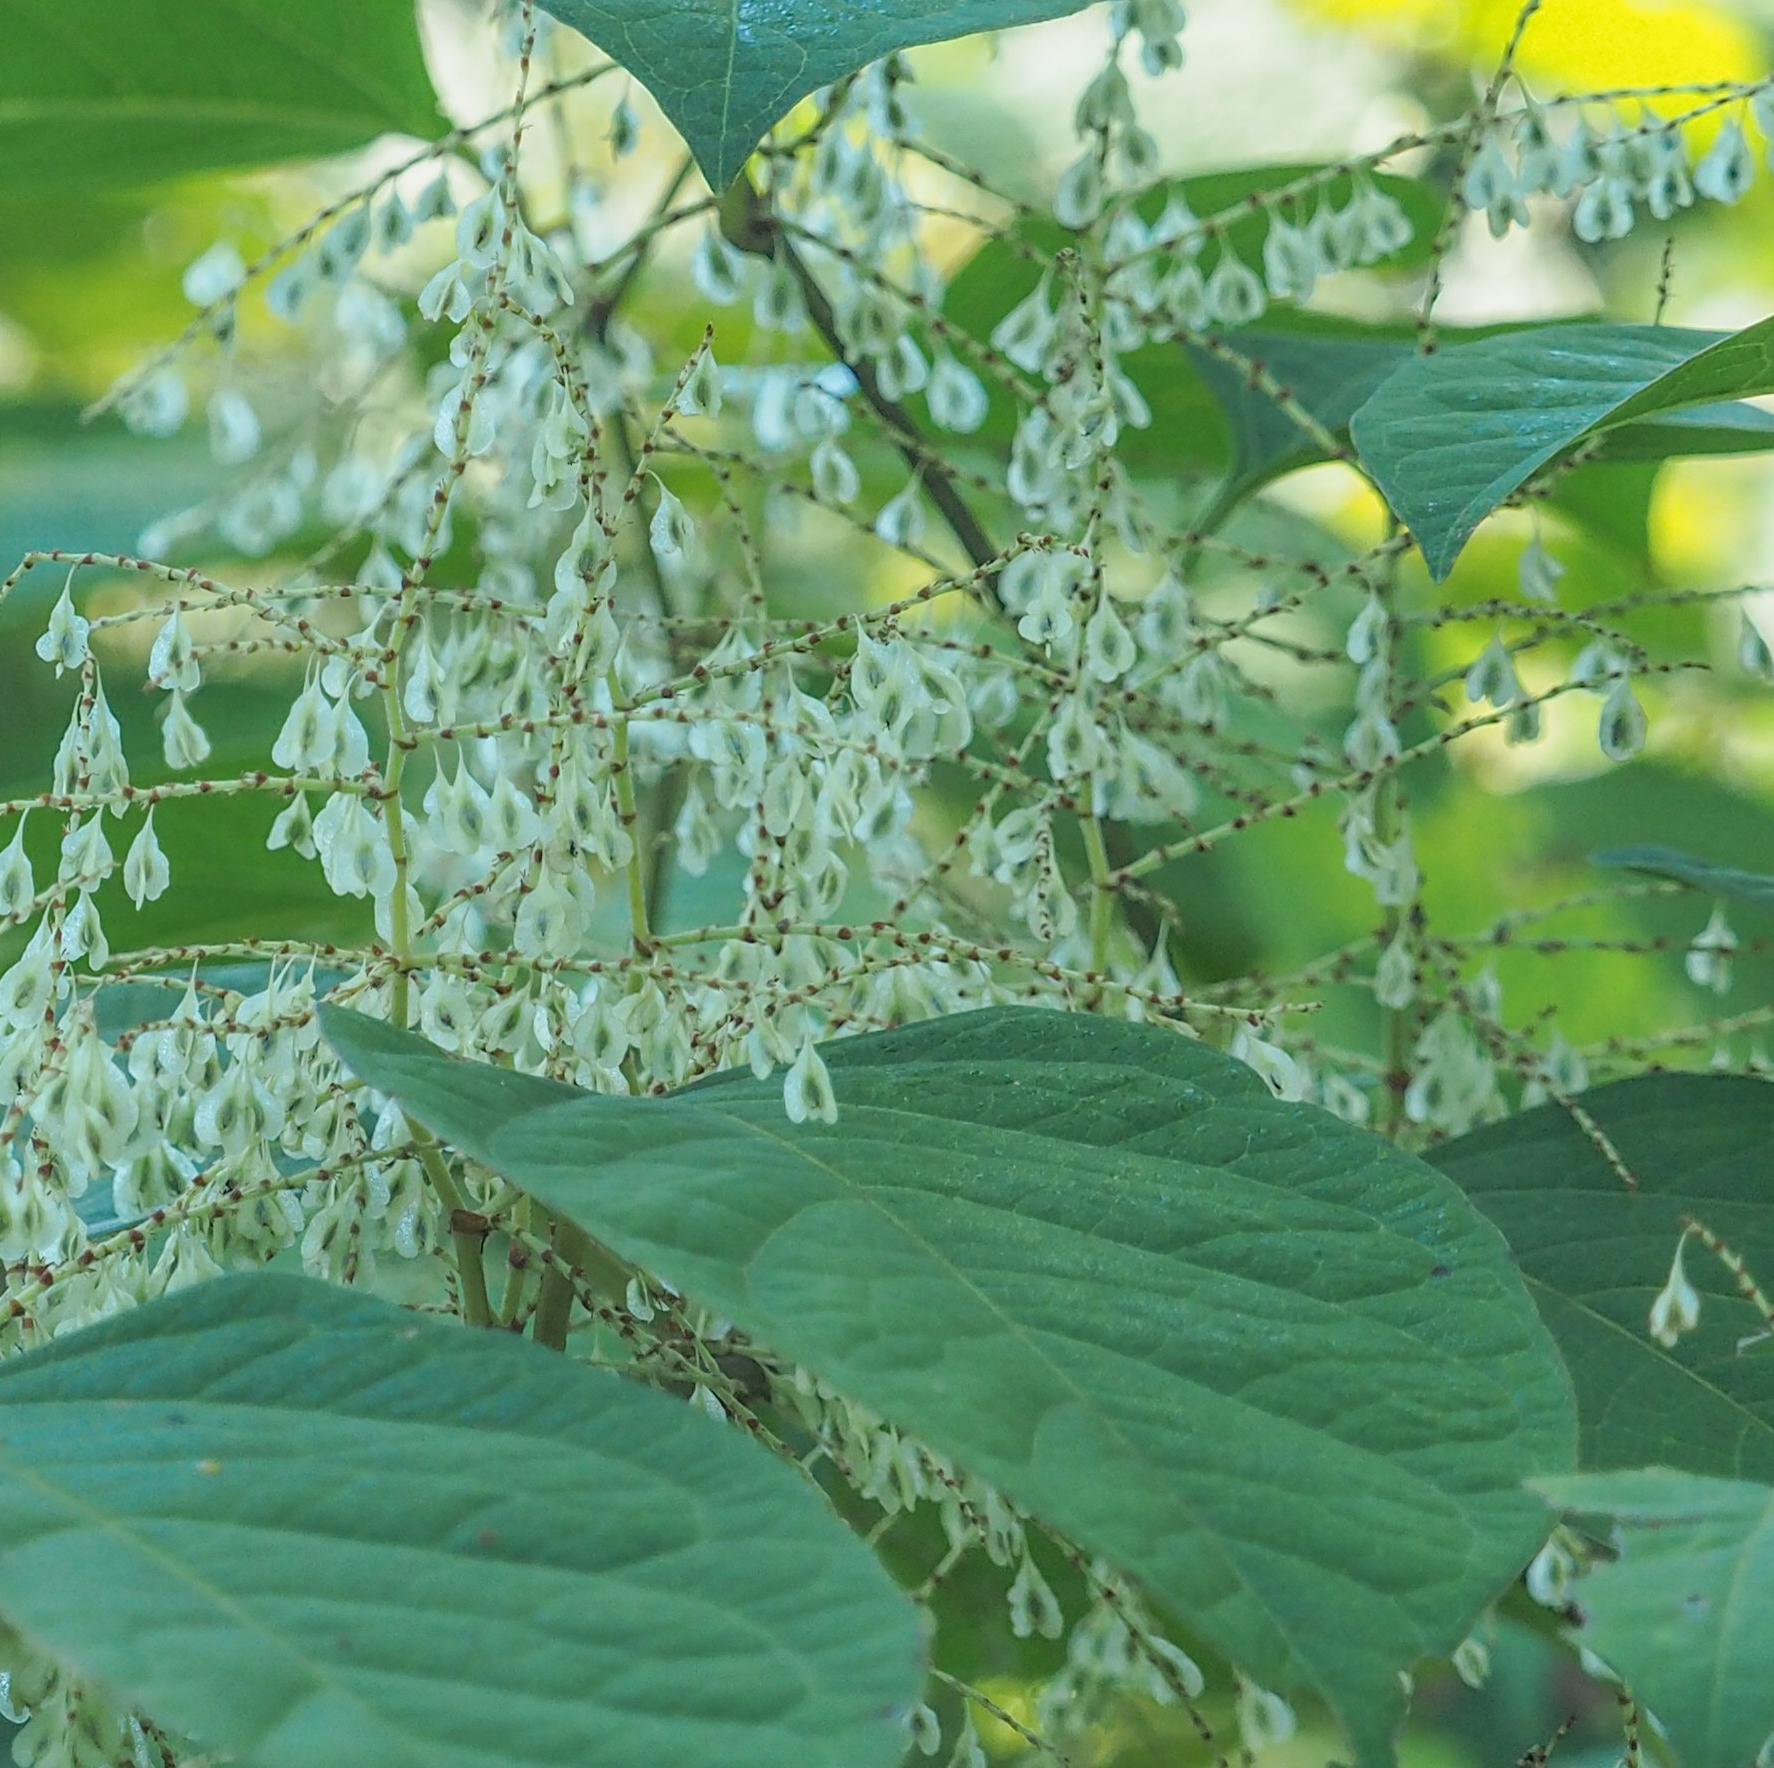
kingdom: Plantae
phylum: Tracheophyta
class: Magnoliopsida
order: Caryophyllales
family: Polygonaceae
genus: Reynoutria
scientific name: Reynoutria japonica
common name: Japanese knotweed
